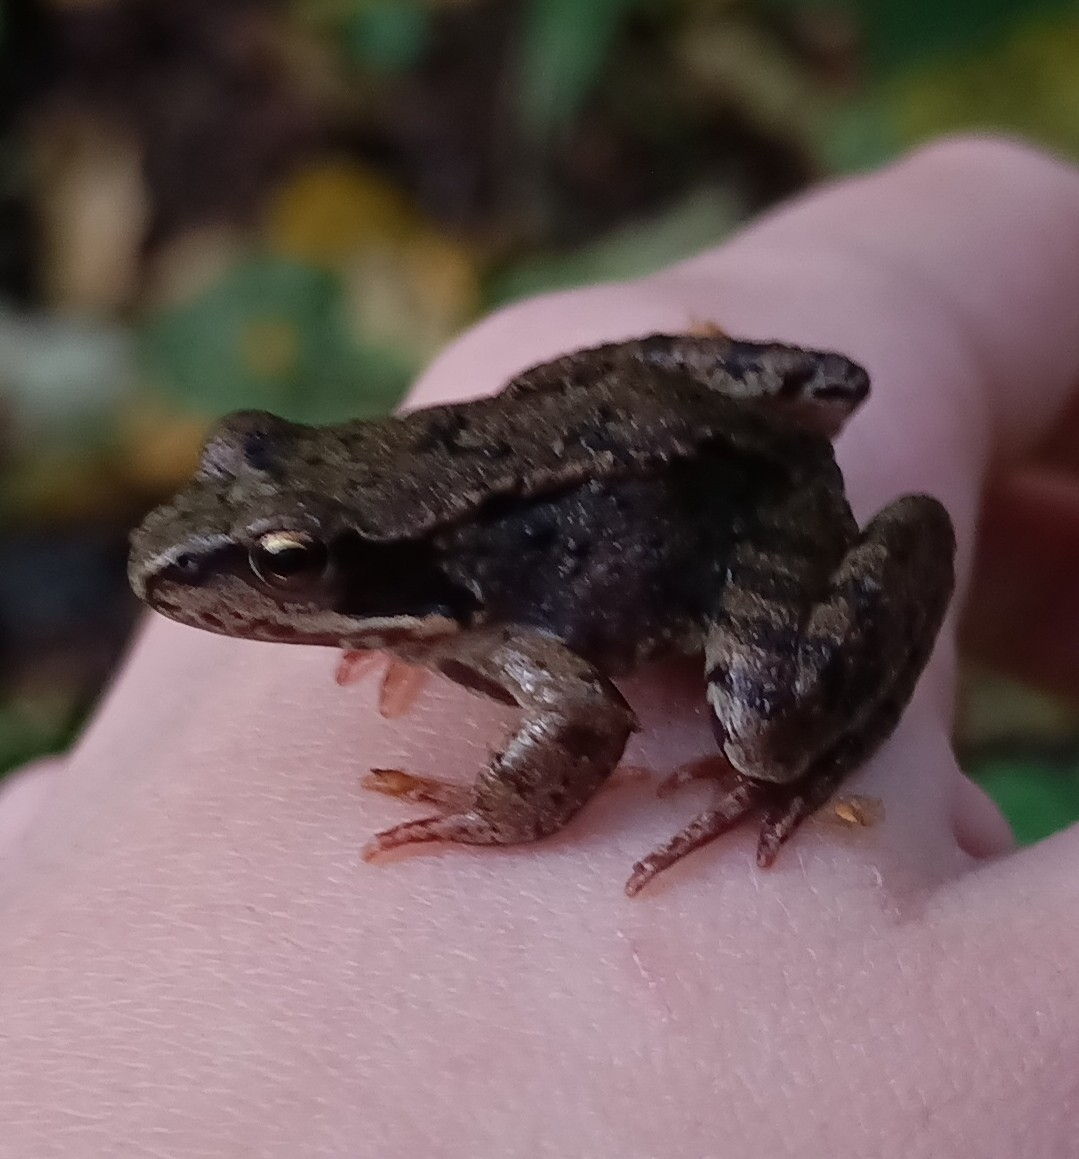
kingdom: Animalia
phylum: Chordata
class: Amphibia
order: Anura
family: Ranidae
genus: Rana
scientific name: Rana temporaria
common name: Common frog
